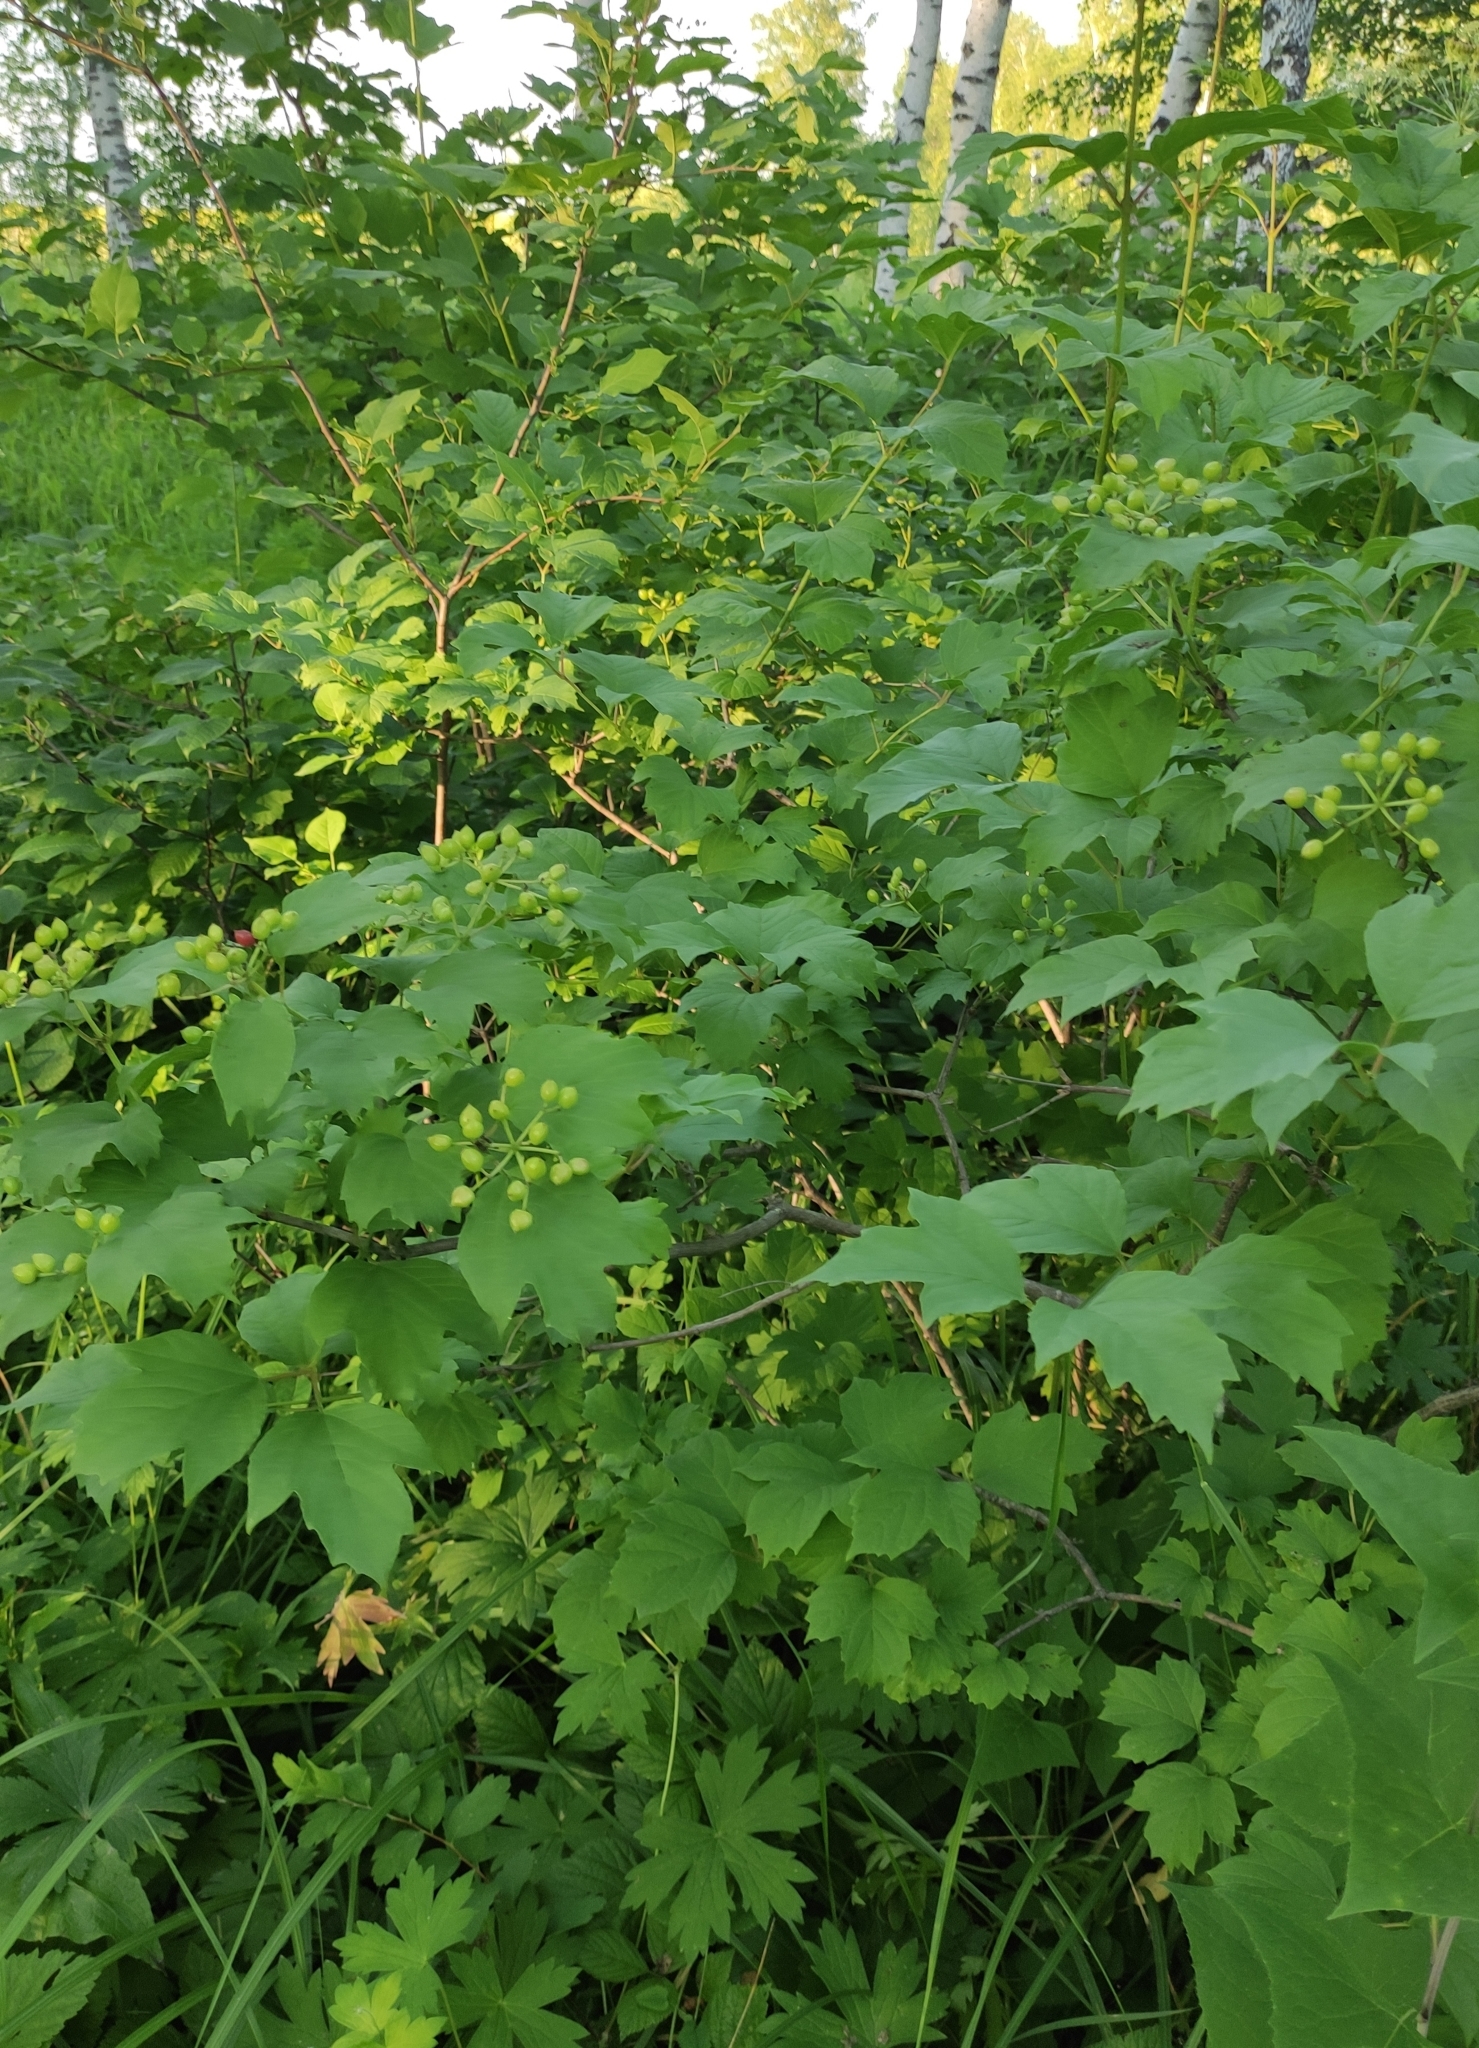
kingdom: Plantae
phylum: Tracheophyta
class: Magnoliopsida
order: Dipsacales
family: Viburnaceae
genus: Viburnum
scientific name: Viburnum opulus
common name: Guelder-rose
